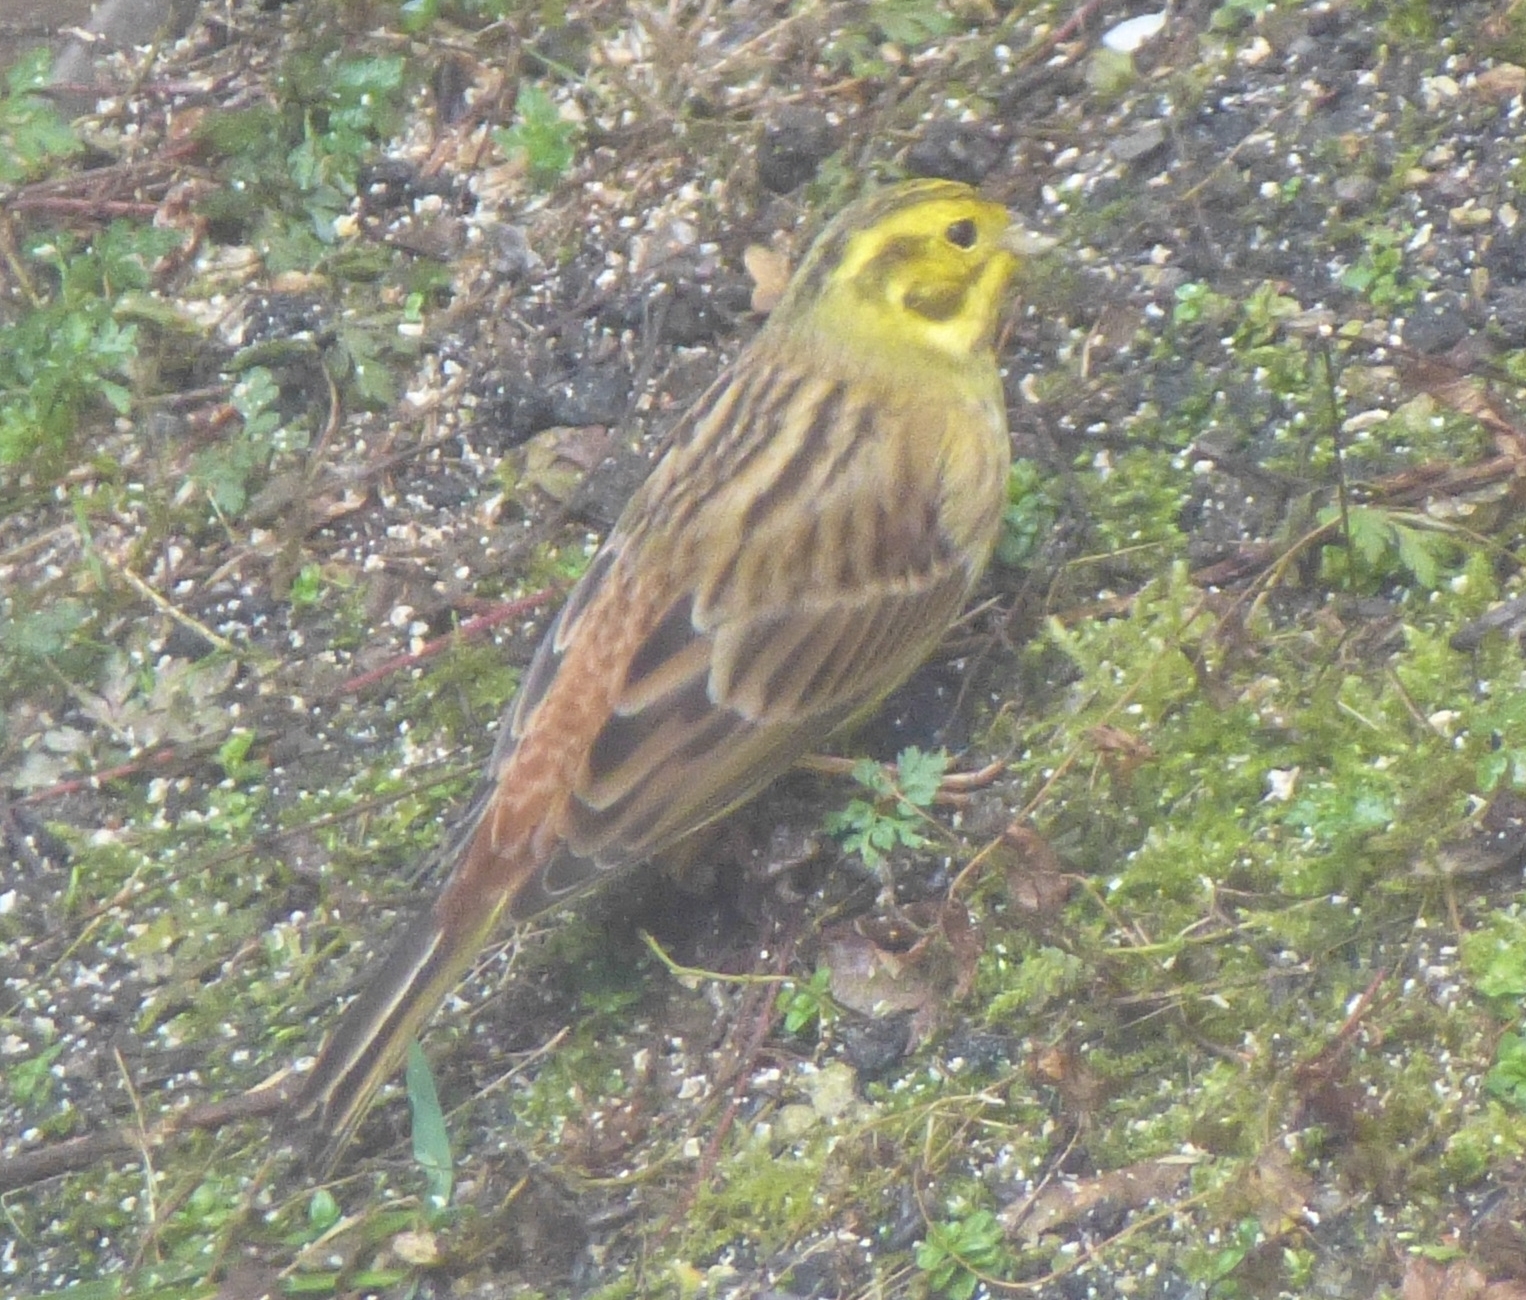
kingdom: Animalia
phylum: Chordata
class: Aves
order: Passeriformes
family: Emberizidae
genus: Emberiza
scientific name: Emberiza citrinella
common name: Yellowhammer
